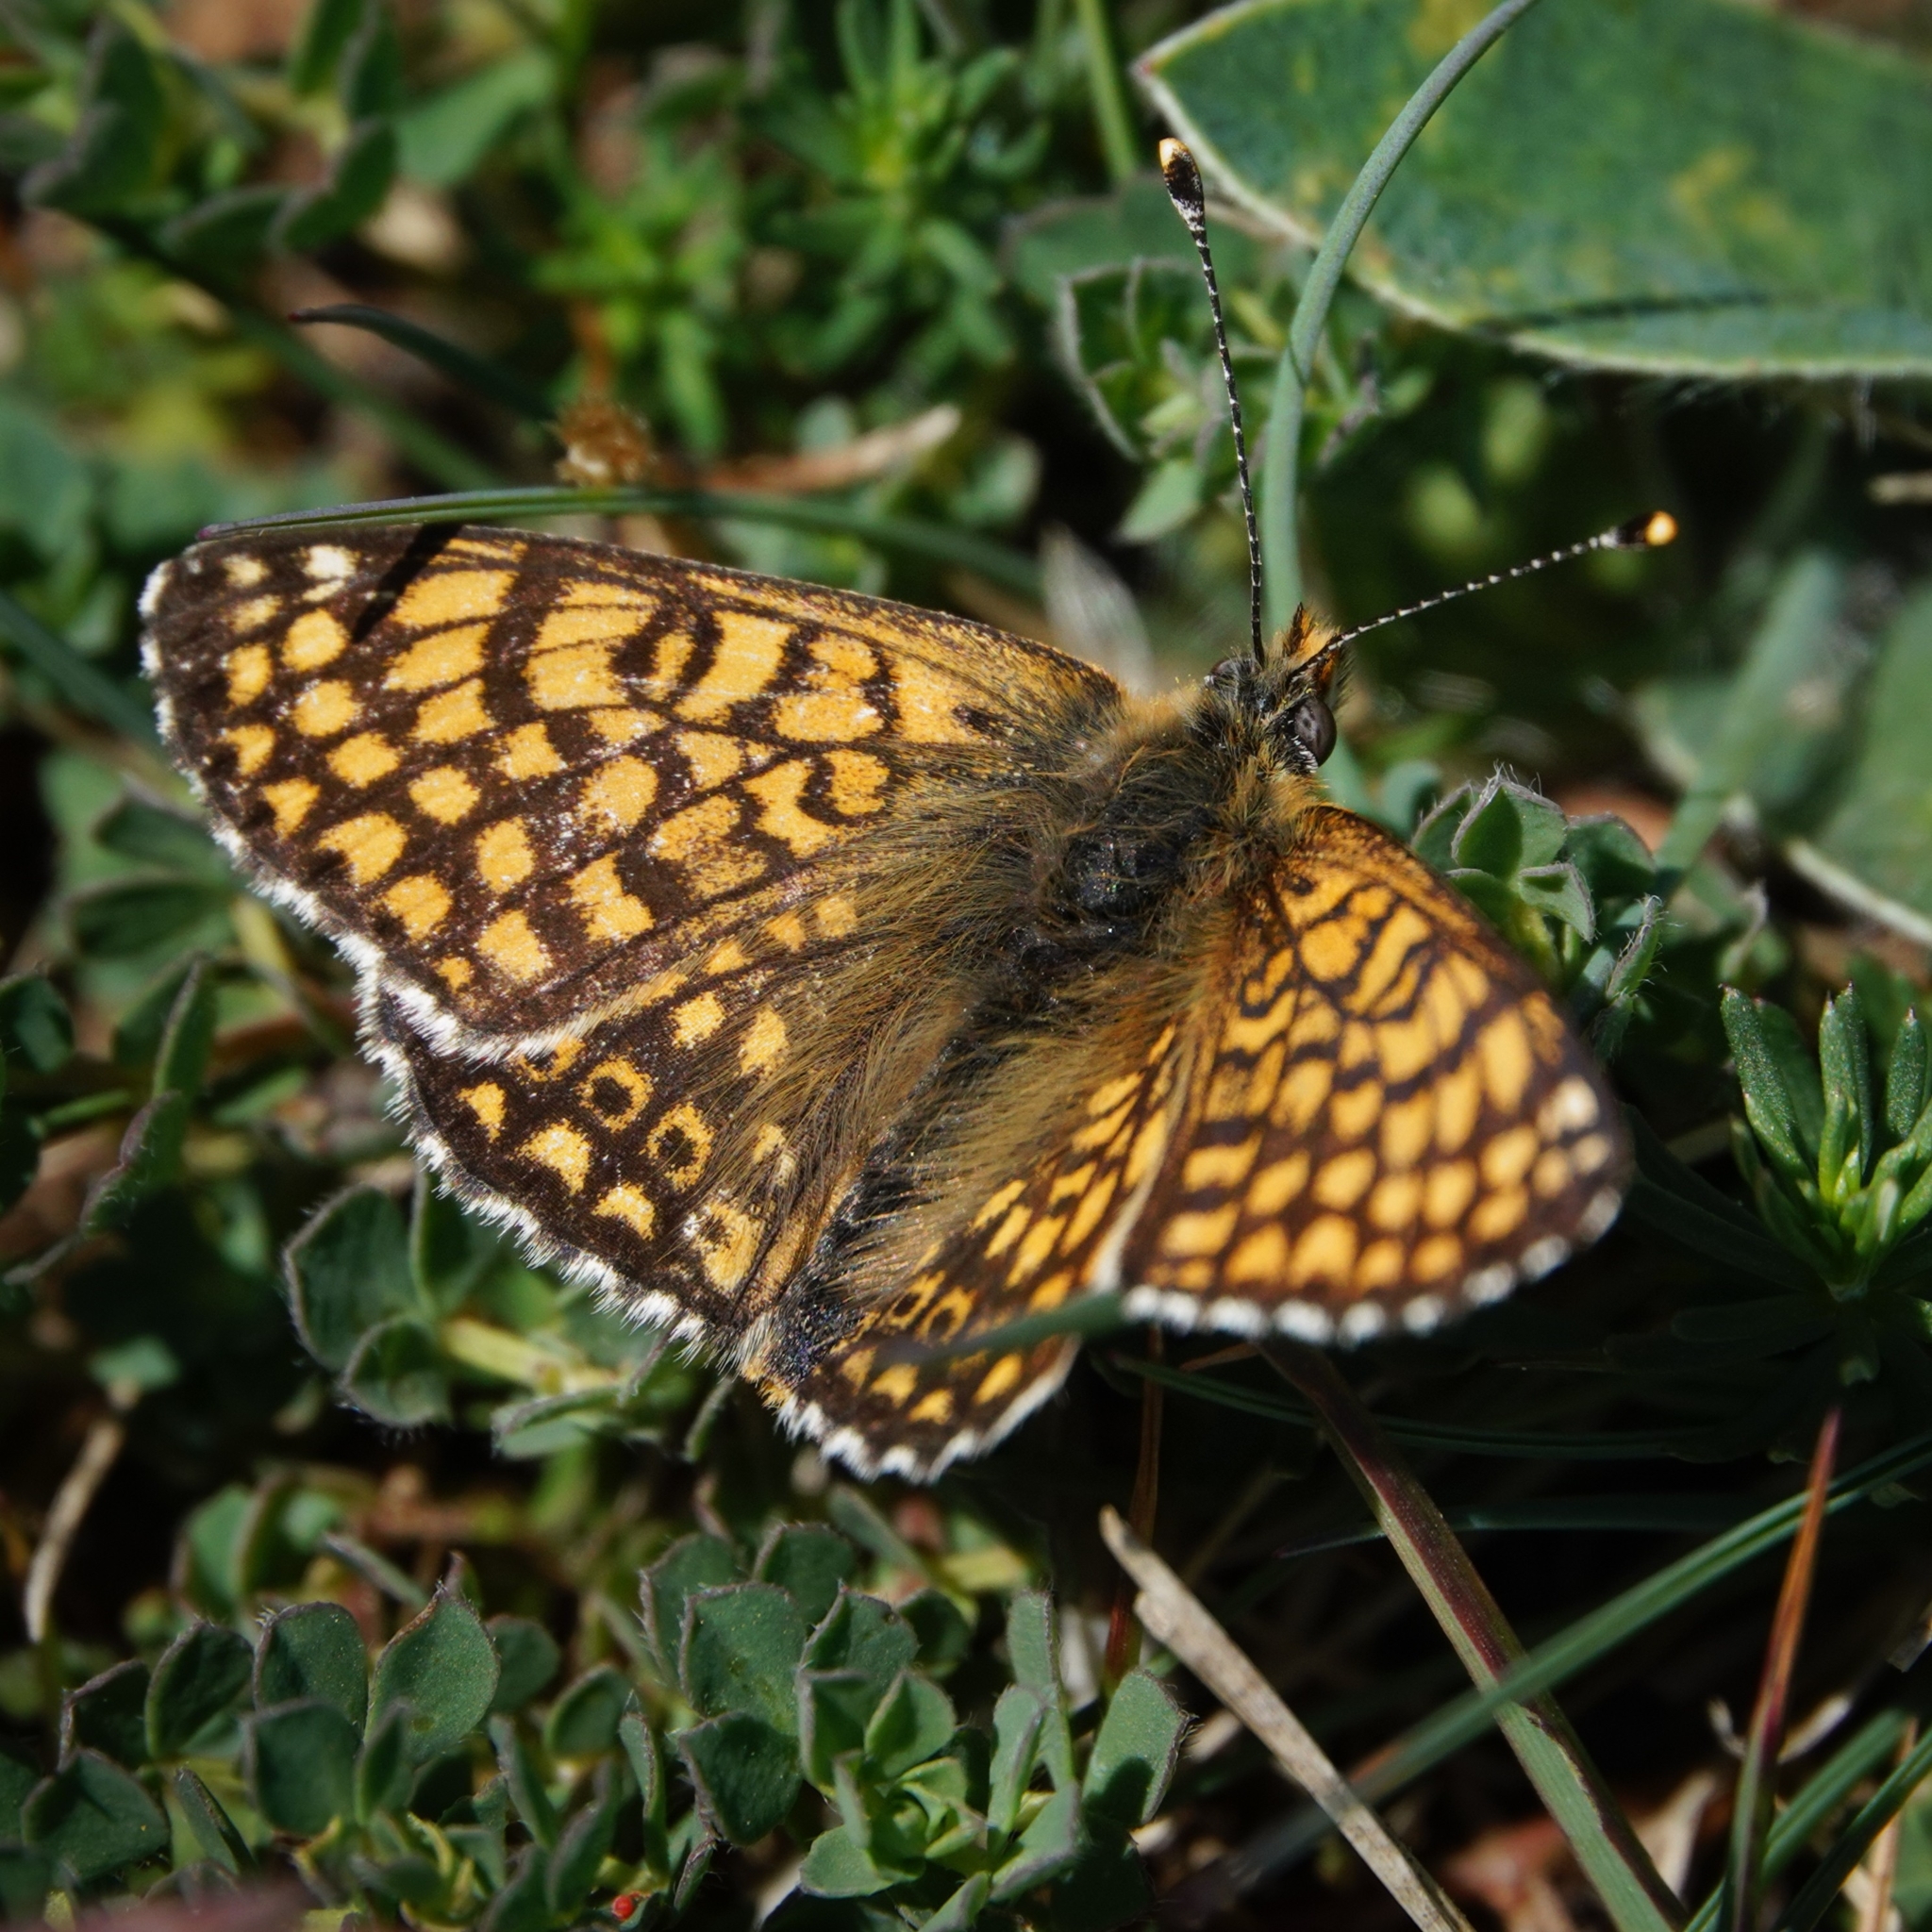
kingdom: Animalia
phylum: Arthropoda
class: Insecta
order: Lepidoptera
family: Nymphalidae
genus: Melitaea
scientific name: Melitaea cinxia
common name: Glanville fritillary
